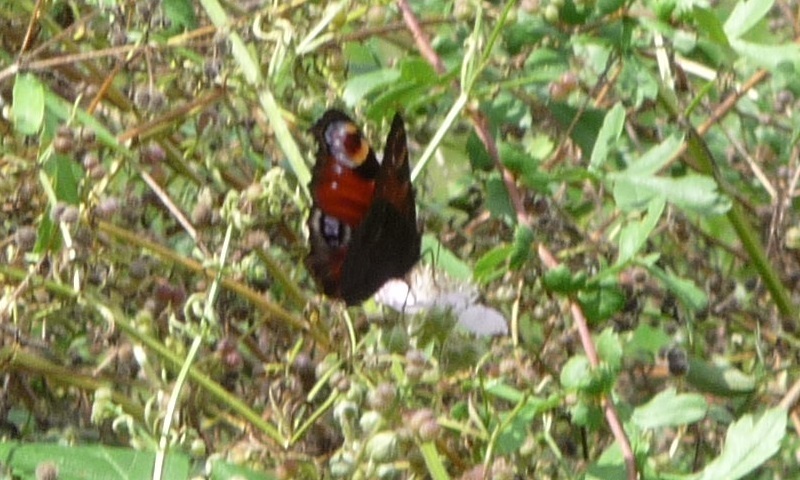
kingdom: Animalia
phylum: Arthropoda
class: Insecta
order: Lepidoptera
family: Nymphalidae
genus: Aglais
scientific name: Aglais io
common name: Peacock
